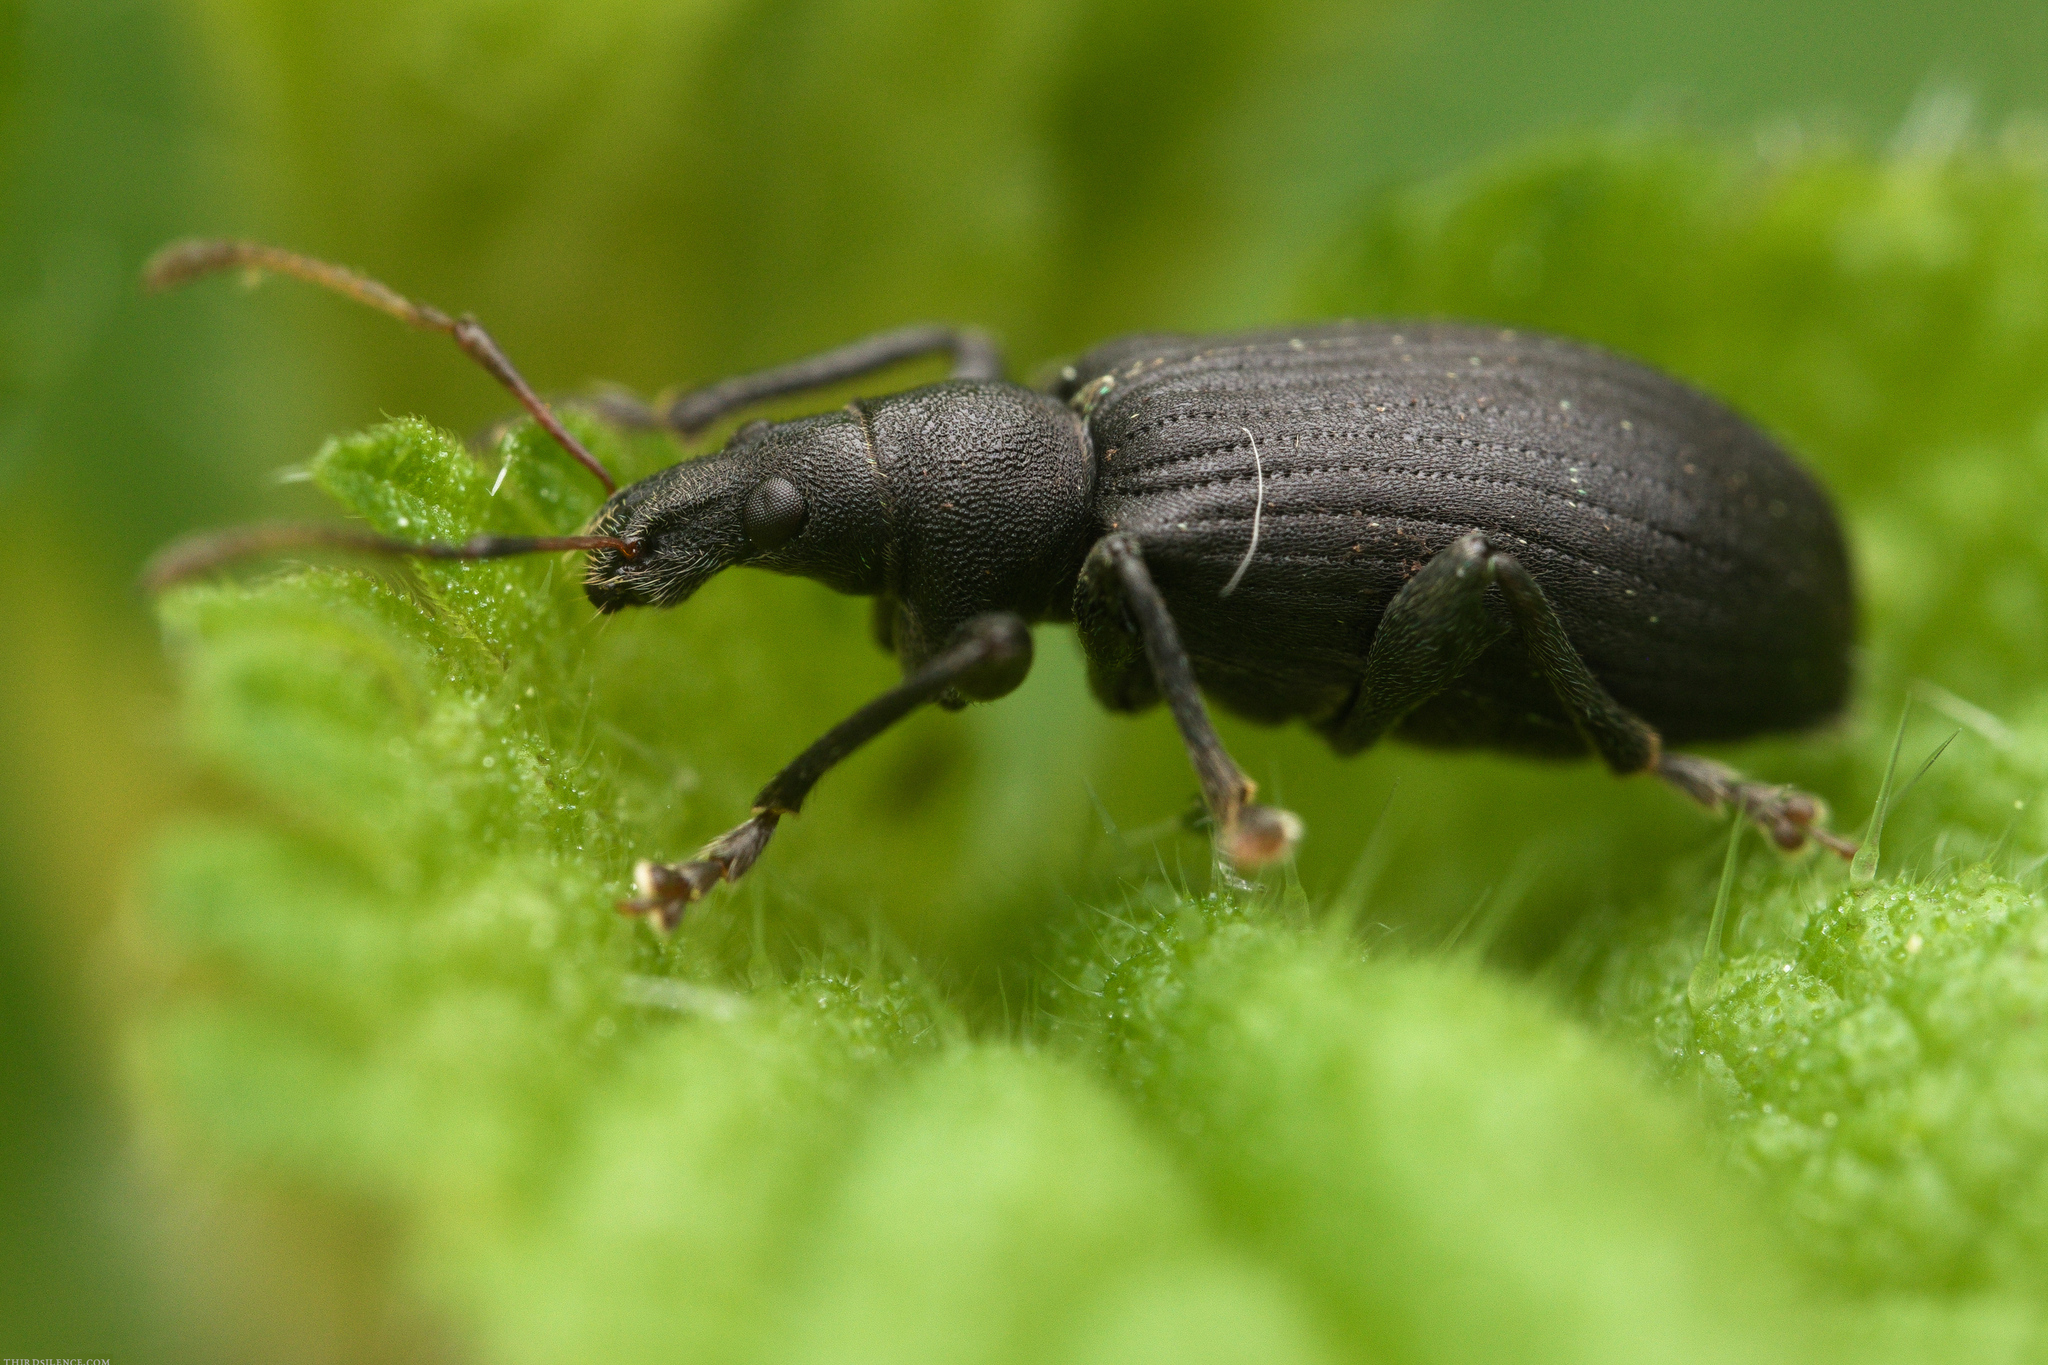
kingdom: Animalia
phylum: Arthropoda
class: Insecta
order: Coleoptera
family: Curculionidae
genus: Phyllobius
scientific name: Phyllobius glaucus
